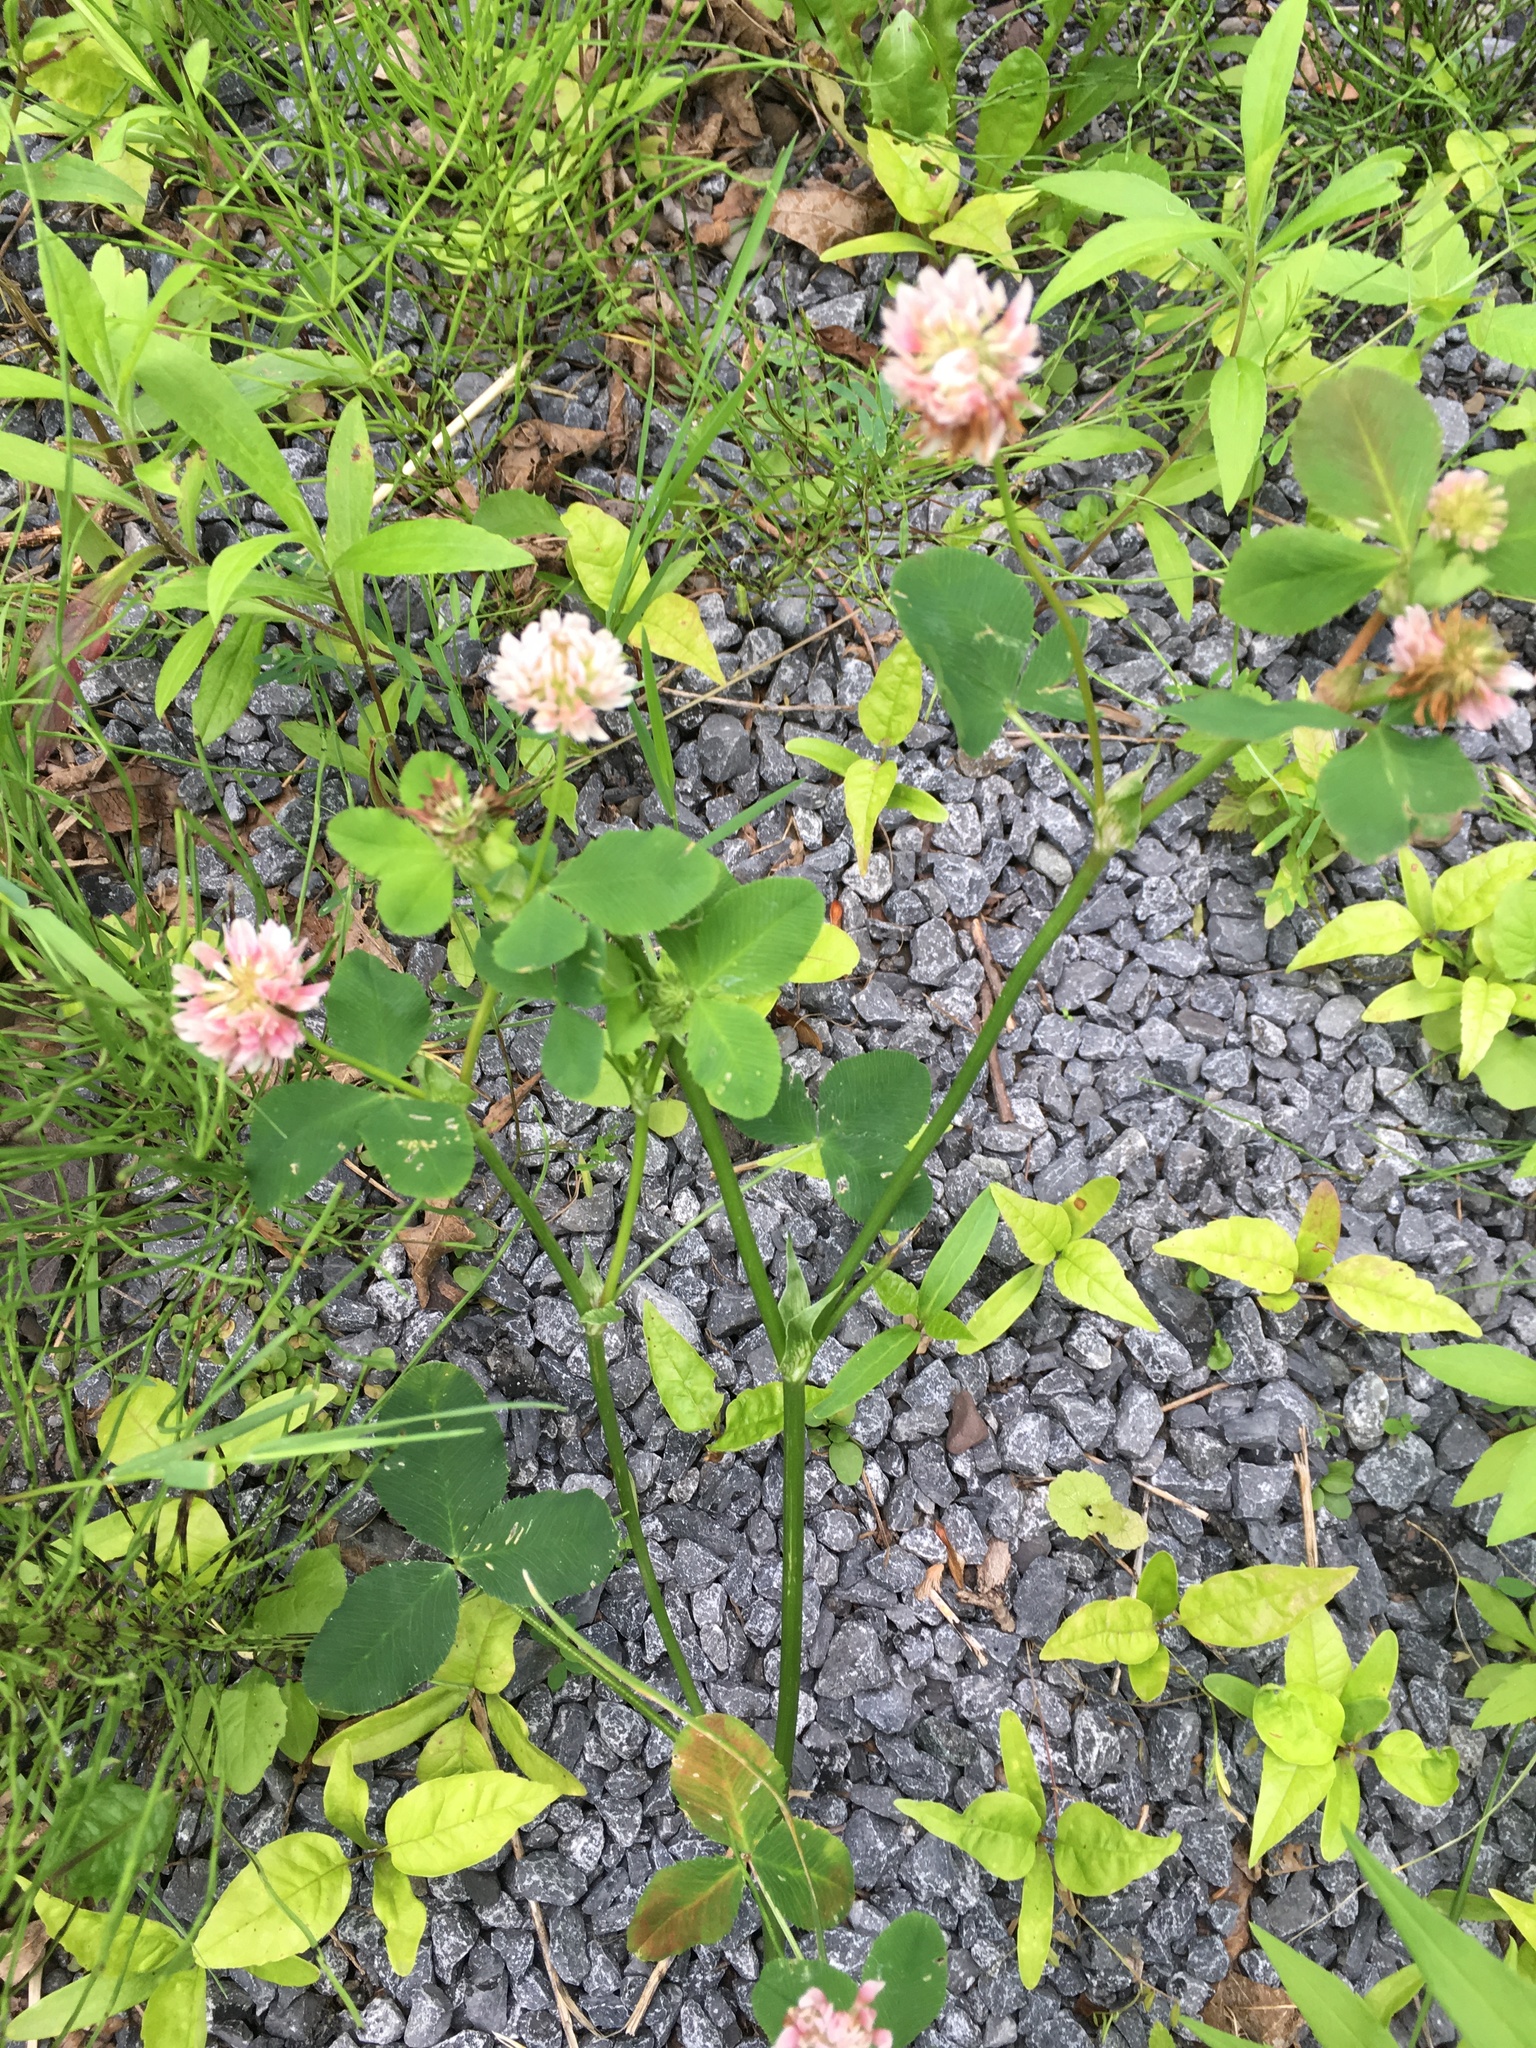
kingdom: Plantae
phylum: Tracheophyta
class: Magnoliopsida
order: Fabales
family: Fabaceae
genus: Trifolium
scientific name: Trifolium hybridum
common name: Alsike clover
